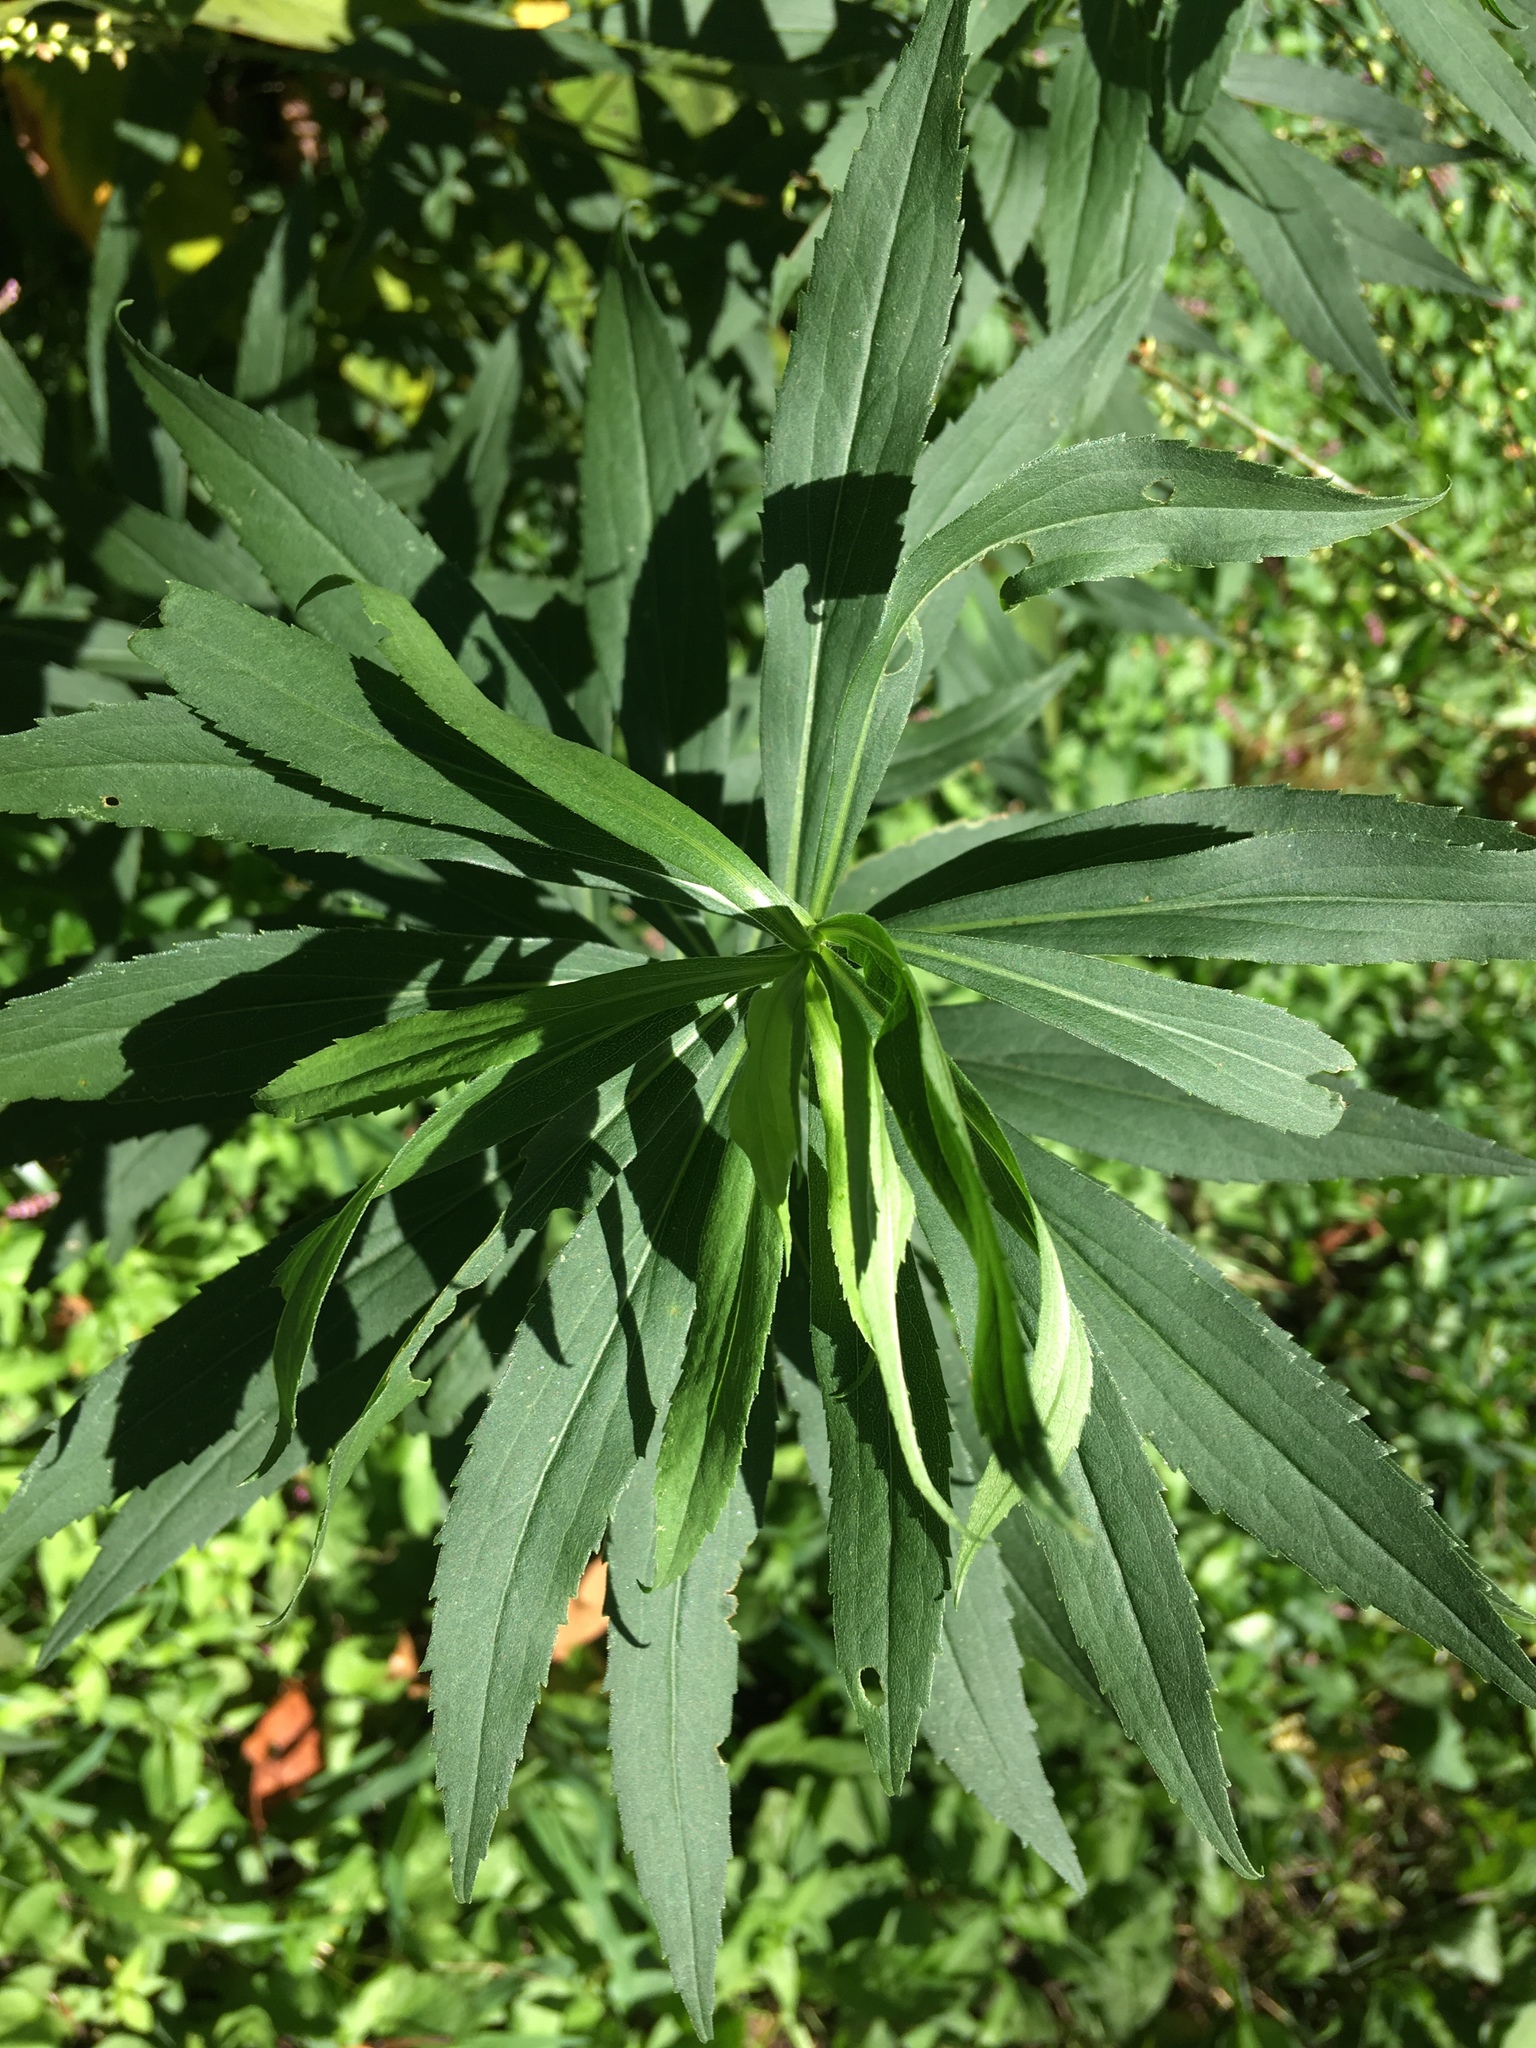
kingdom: Plantae
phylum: Tracheophyta
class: Magnoliopsida
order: Asterales
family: Asteraceae
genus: Solidago
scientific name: Solidago gigantea
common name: Giant goldenrod
